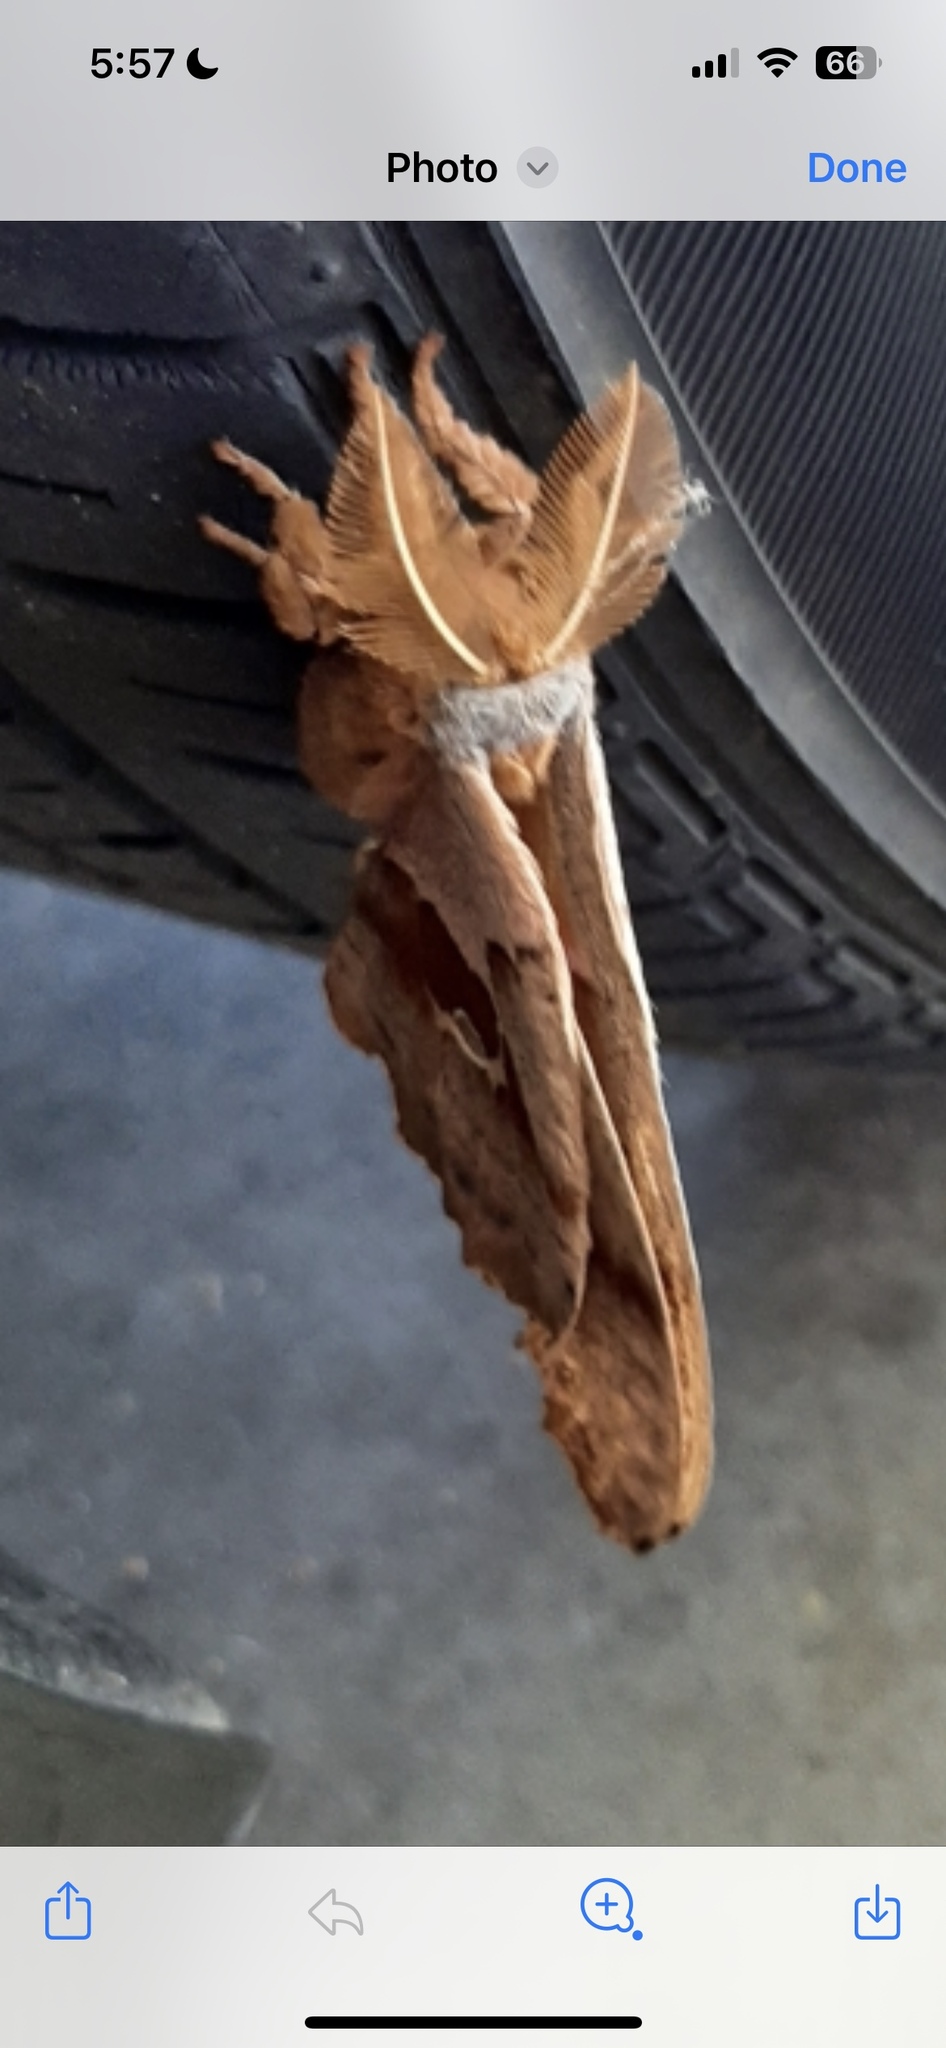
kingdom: Animalia
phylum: Arthropoda
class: Insecta
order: Lepidoptera
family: Saturniidae
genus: Antheraea
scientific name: Antheraea polyphemus
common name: Polyphemus moth
